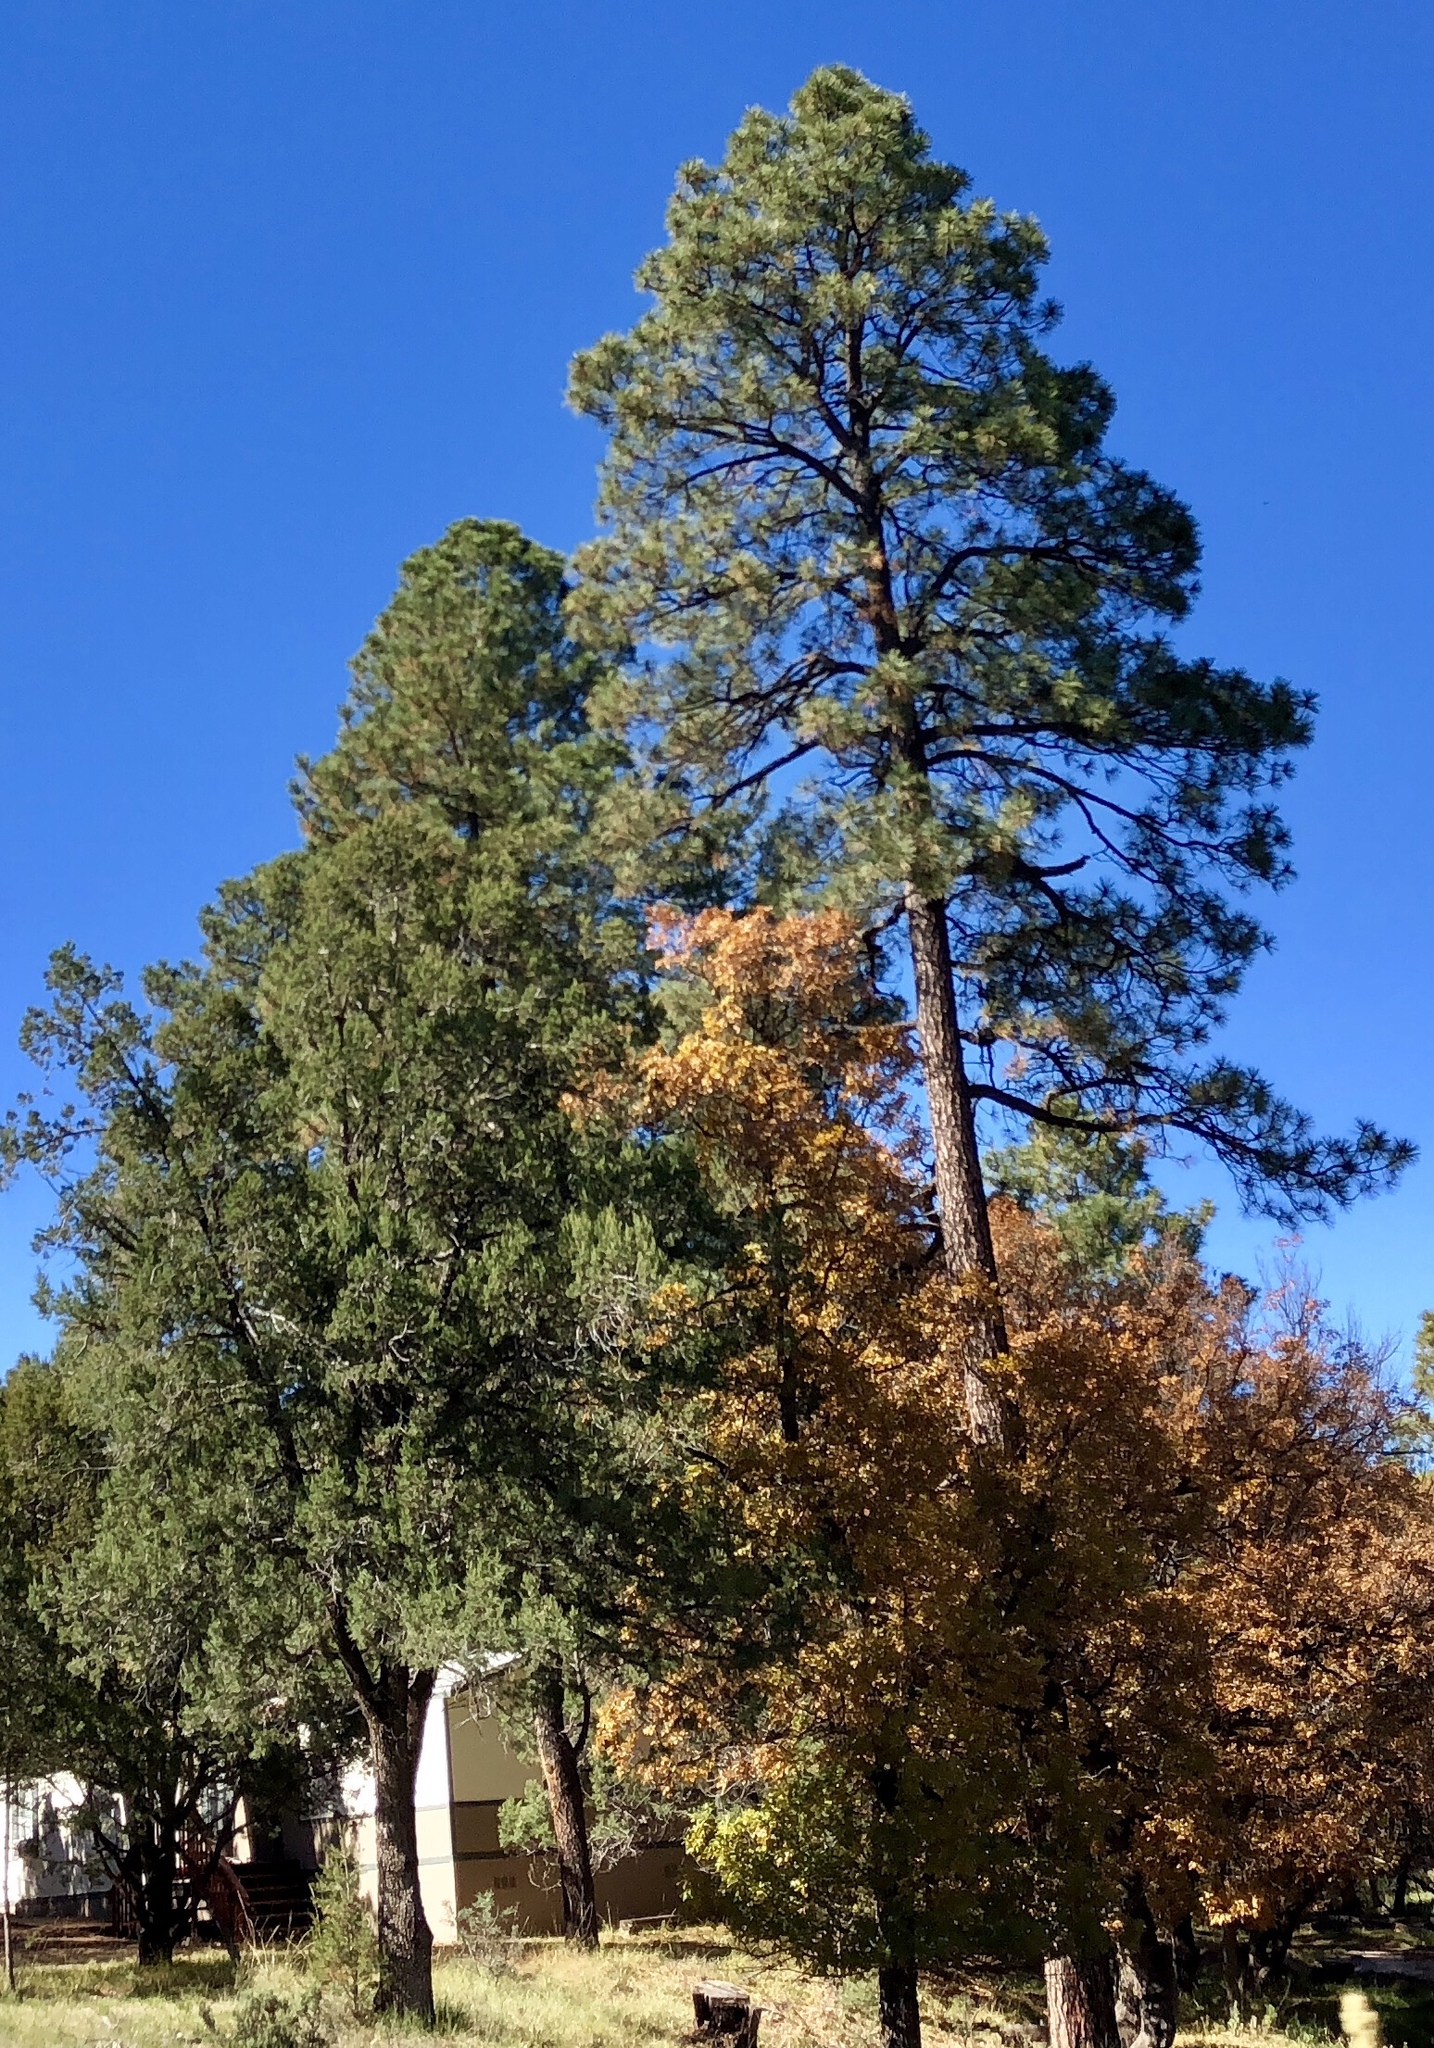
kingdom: Plantae
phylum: Tracheophyta
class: Pinopsida
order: Pinales
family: Pinaceae
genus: Pinus
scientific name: Pinus ponderosa
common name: Western yellow-pine
